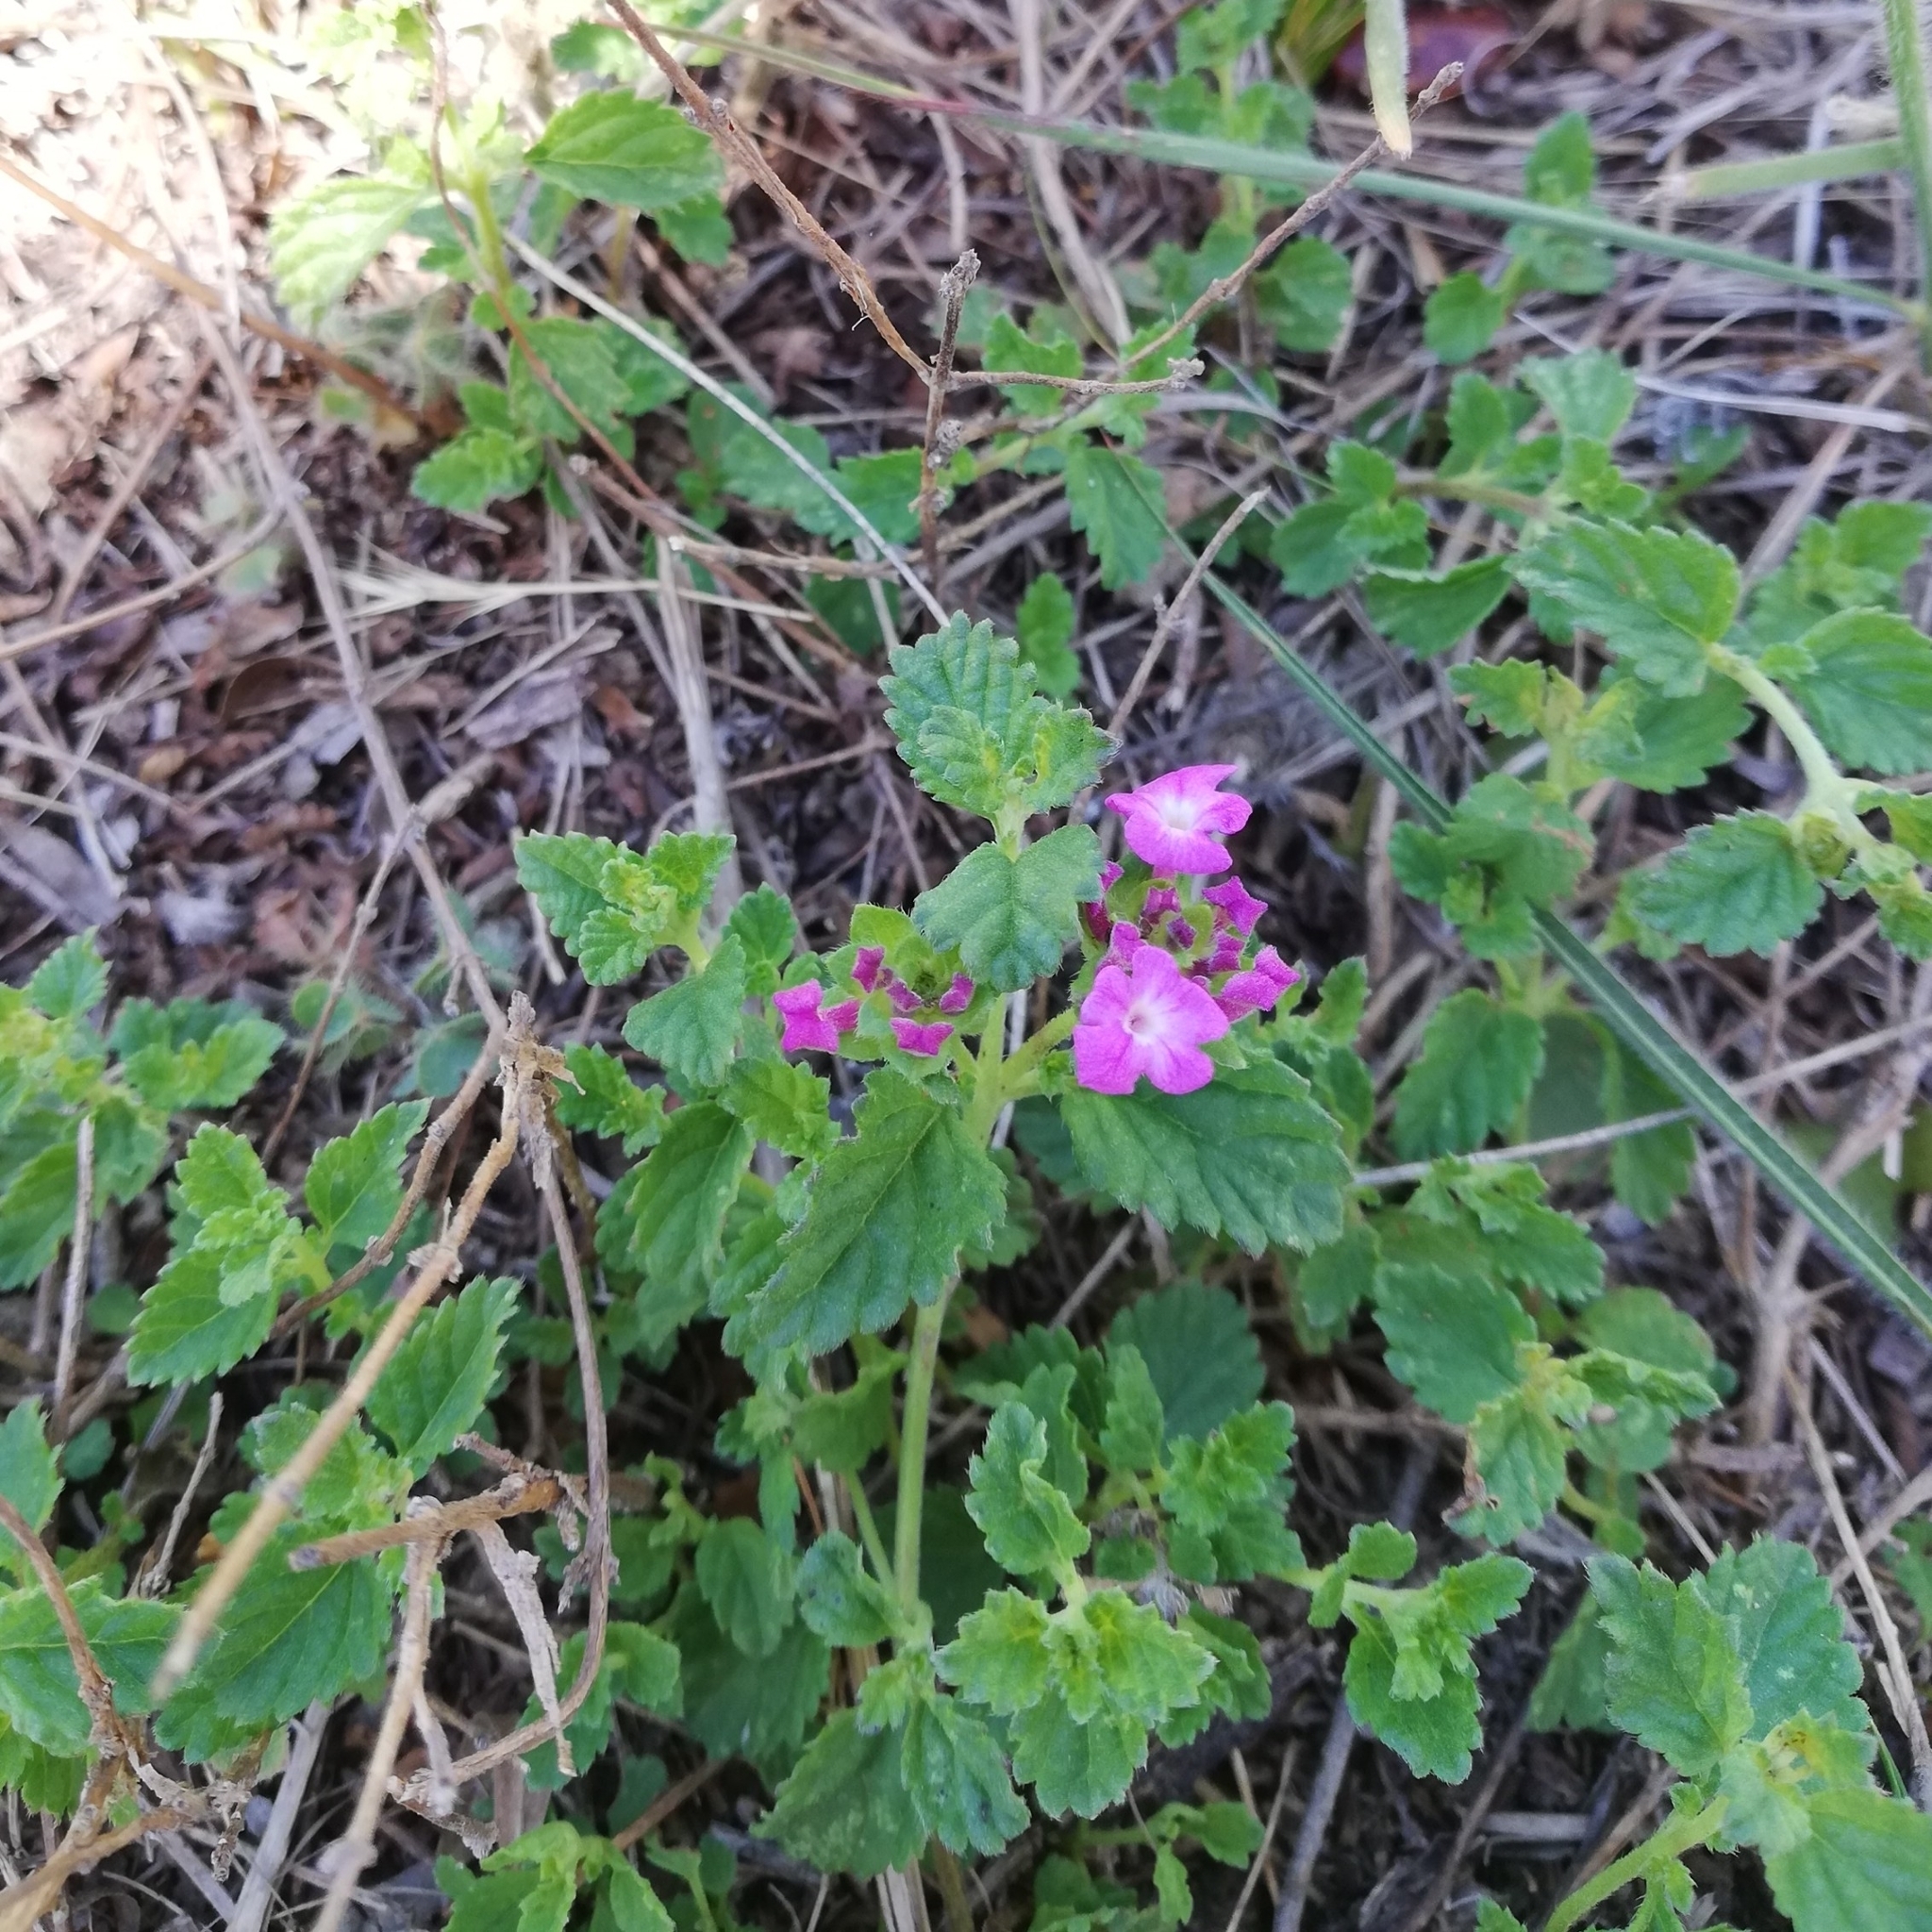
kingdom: Plantae
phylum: Tracheophyta
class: Magnoliopsida
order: Lamiales
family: Verbenaceae
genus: Lantana
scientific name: Lantana montevidensis
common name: Trailing shrubverbena
